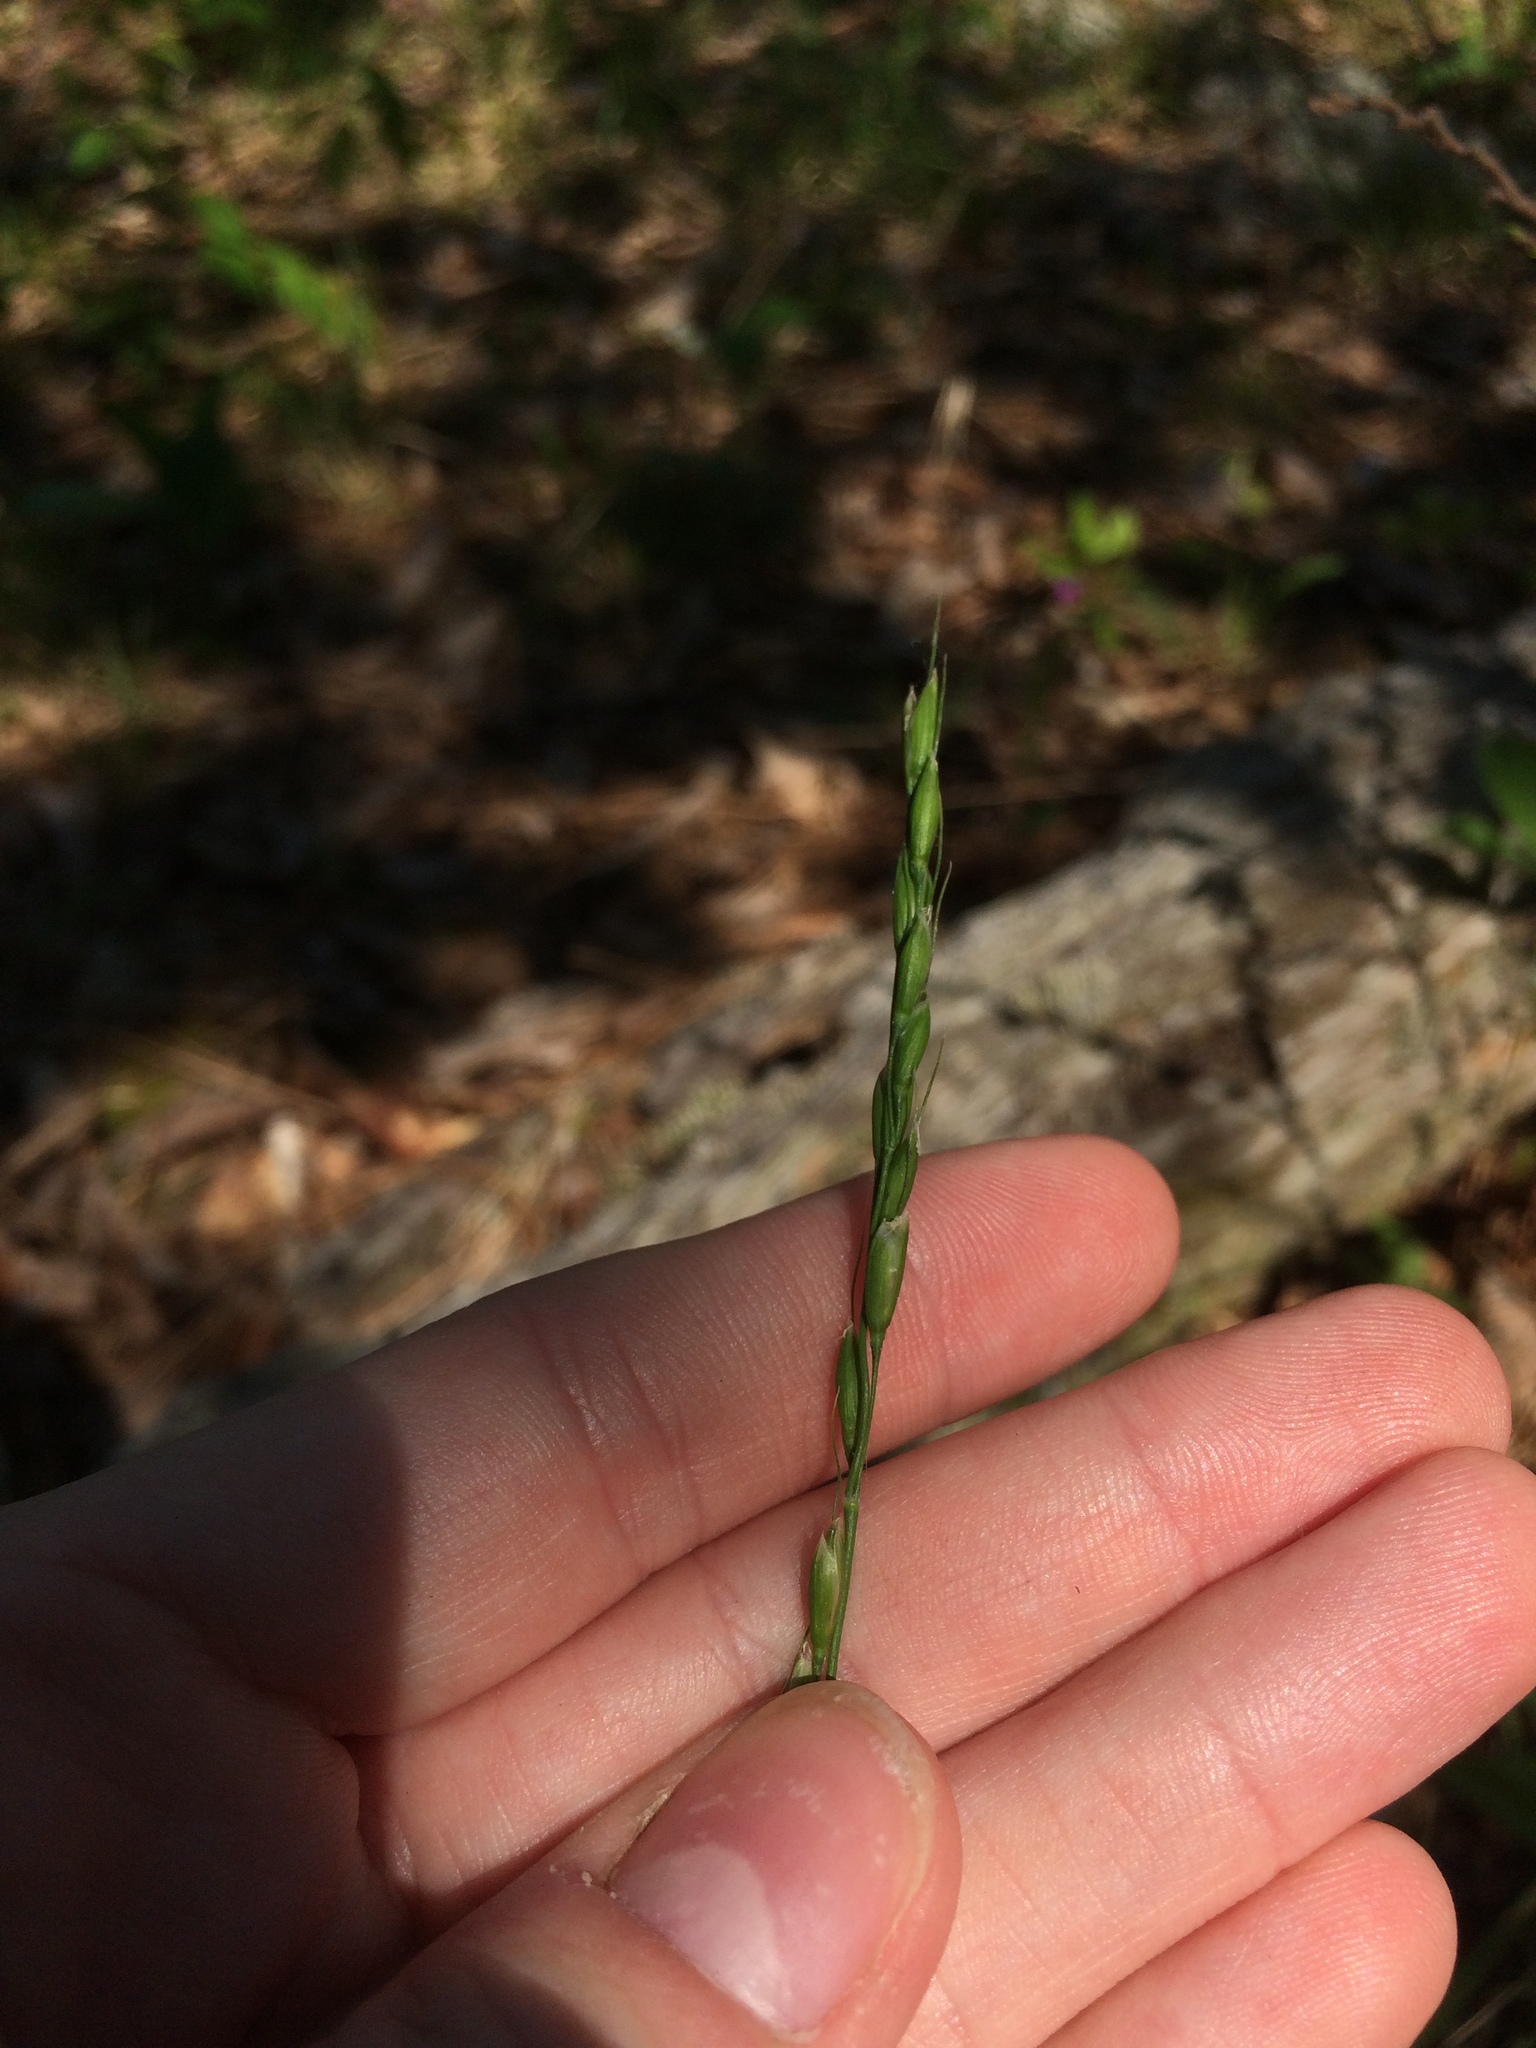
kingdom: Plantae
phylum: Tracheophyta
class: Liliopsida
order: Poales
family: Poaceae
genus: Oryzopsis
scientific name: Oryzopsis asperifolia
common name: Rough-leaved mountain rice
